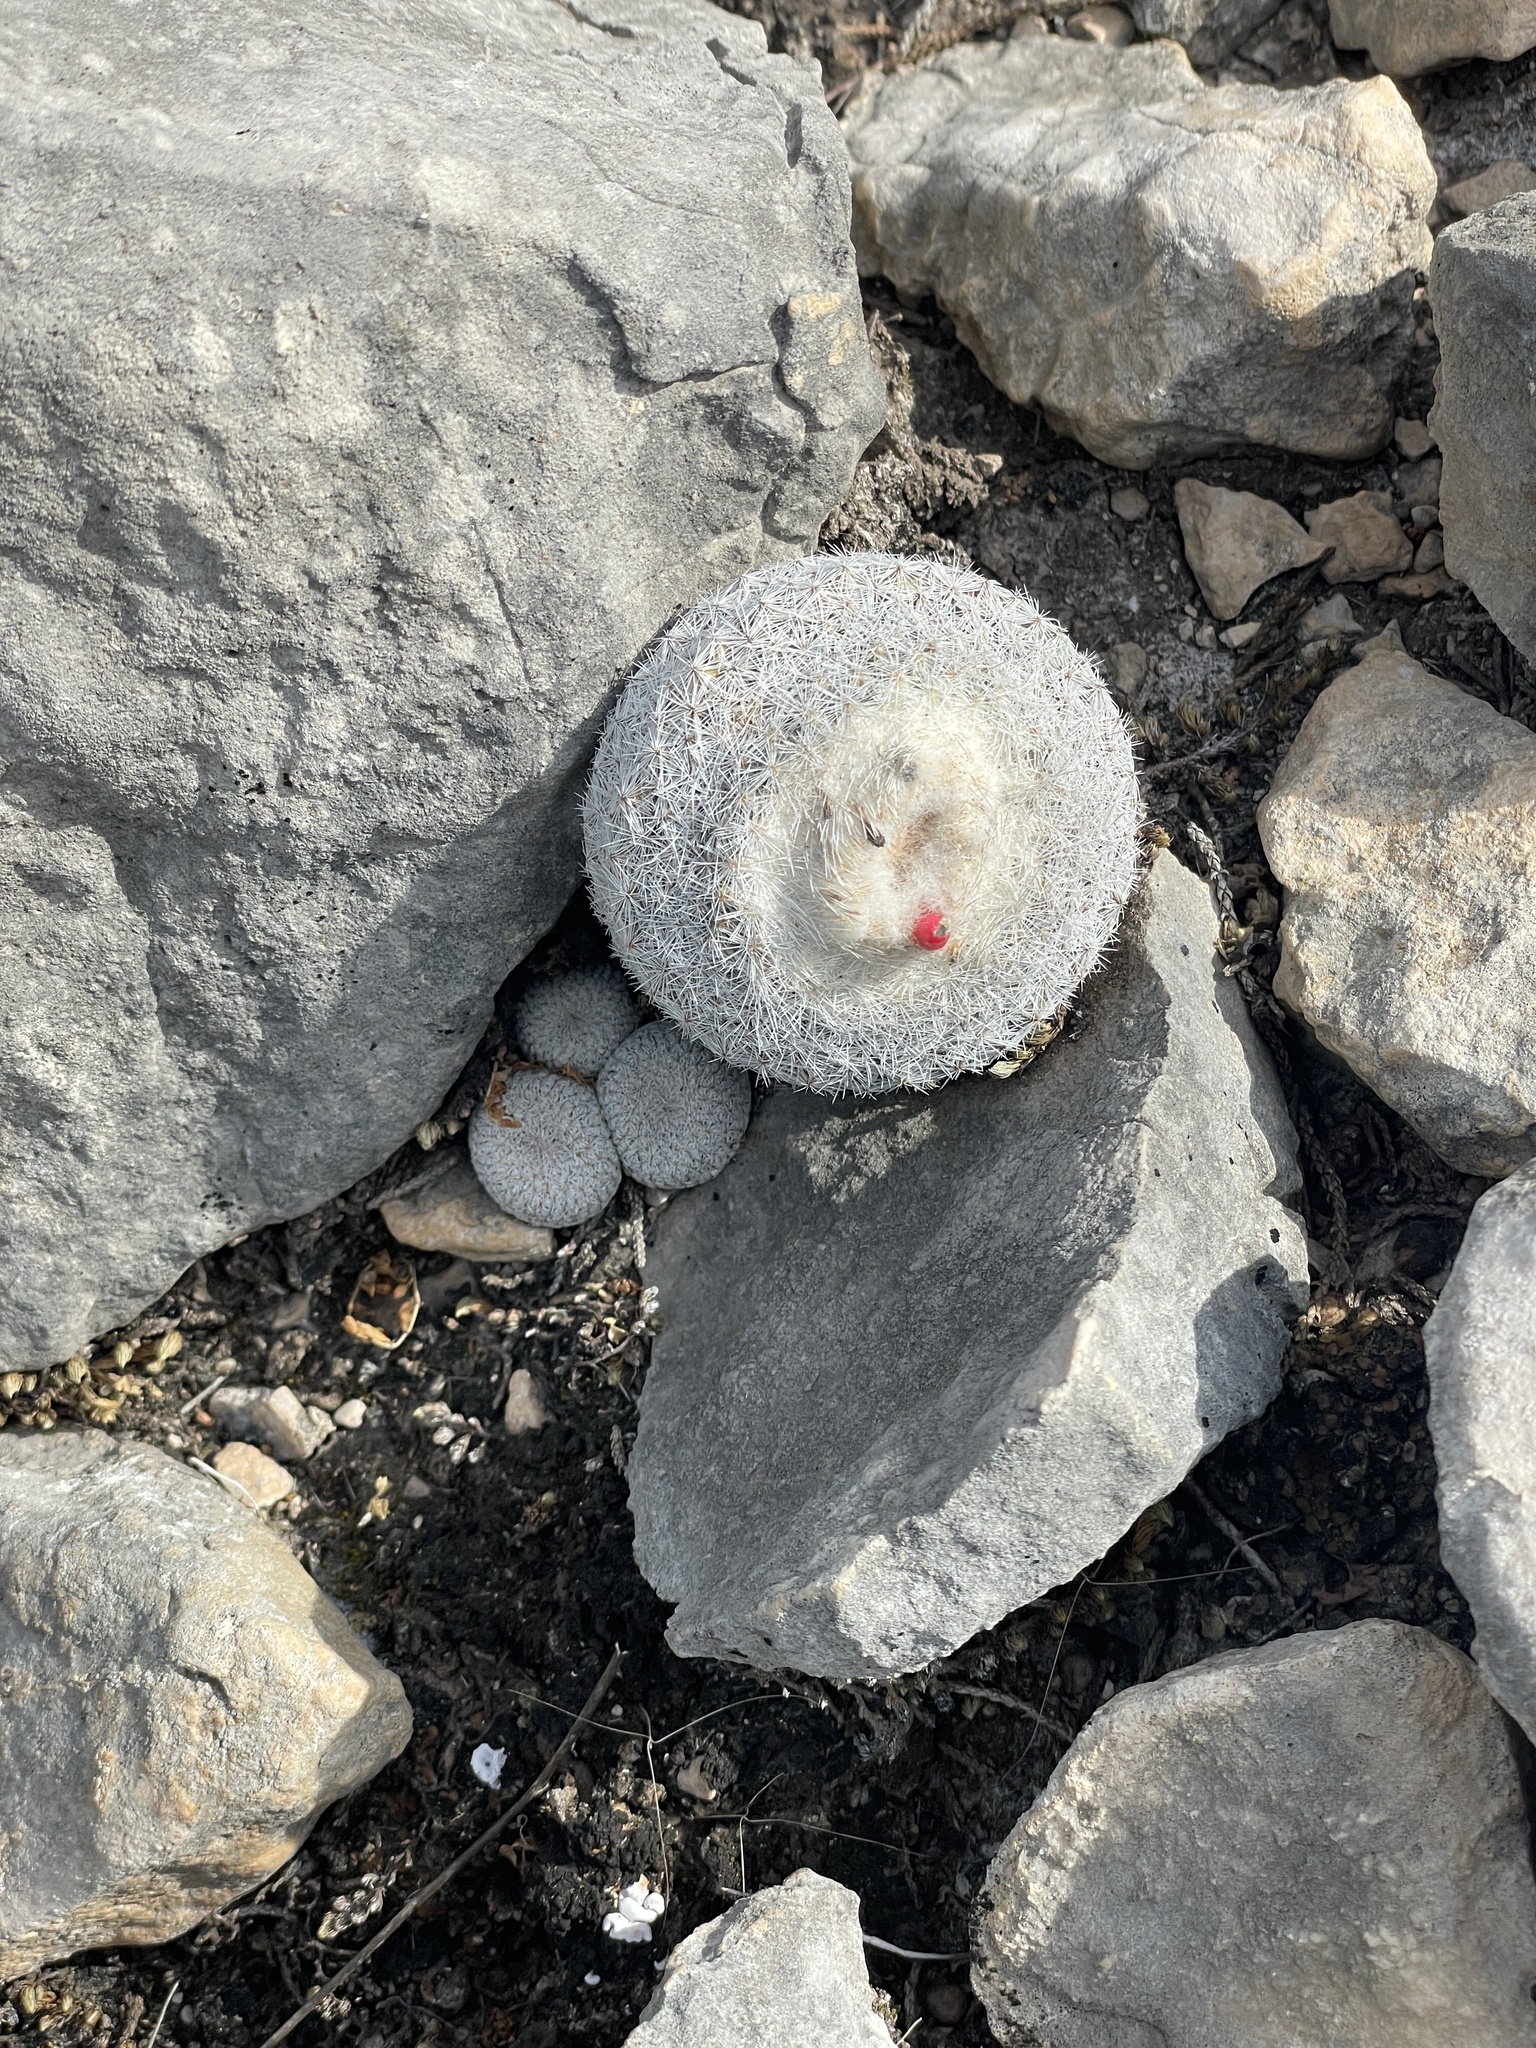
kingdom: Plantae
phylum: Tracheophyta
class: Magnoliopsida
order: Caryophyllales
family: Cactaceae
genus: Epithelantha
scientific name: Epithelantha micromeris
